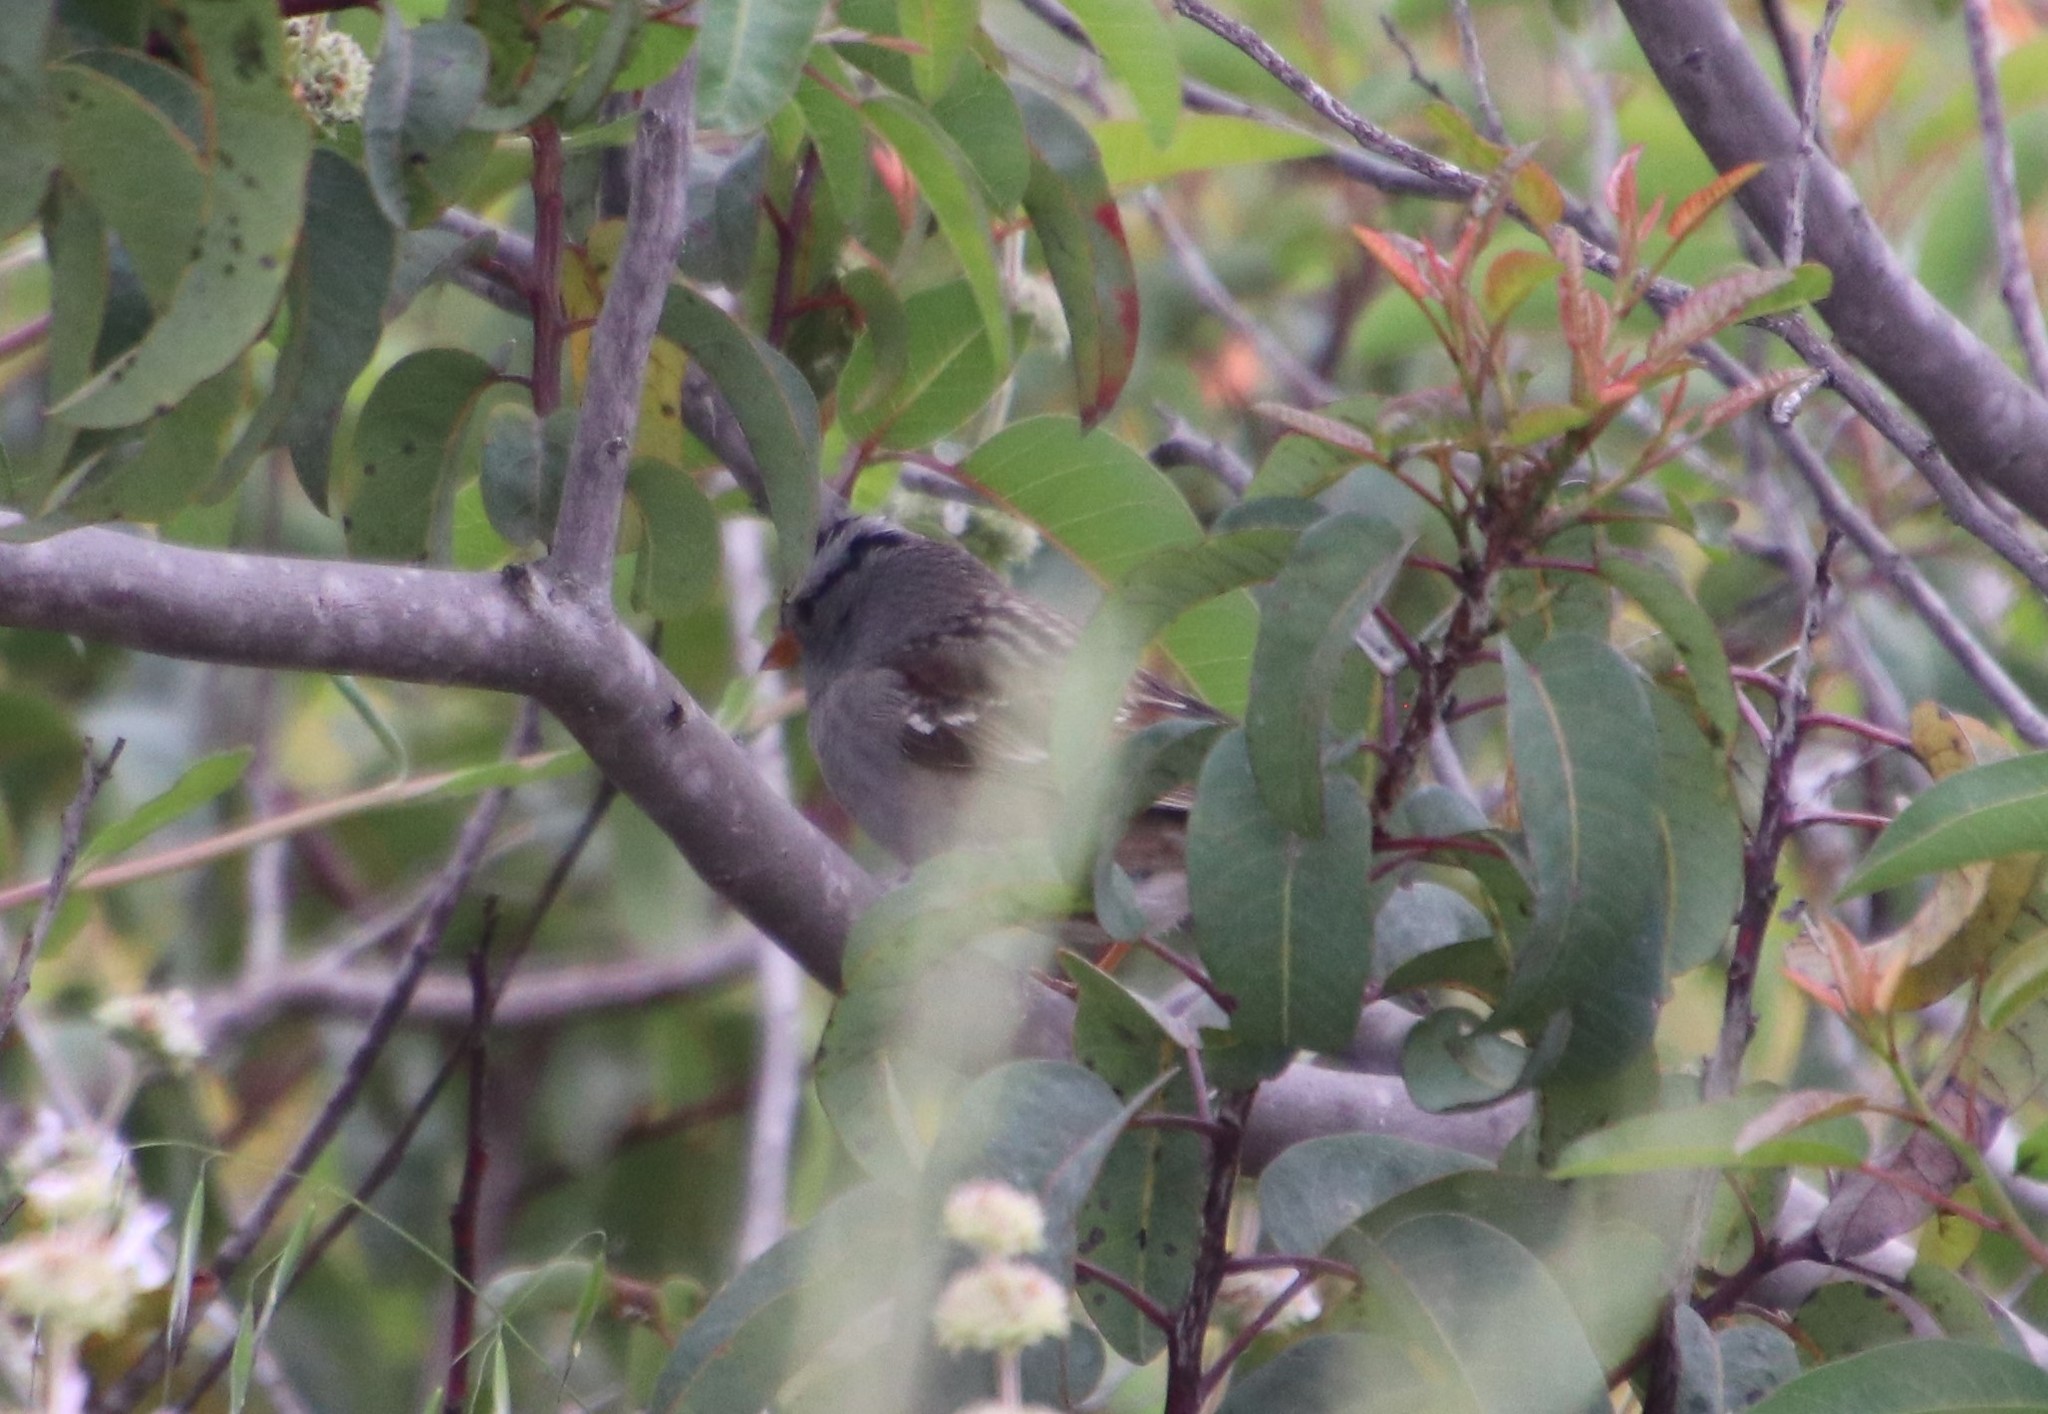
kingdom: Animalia
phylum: Chordata
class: Aves
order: Passeriformes
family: Passerellidae
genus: Zonotrichia
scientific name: Zonotrichia leucophrys
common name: White-crowned sparrow
